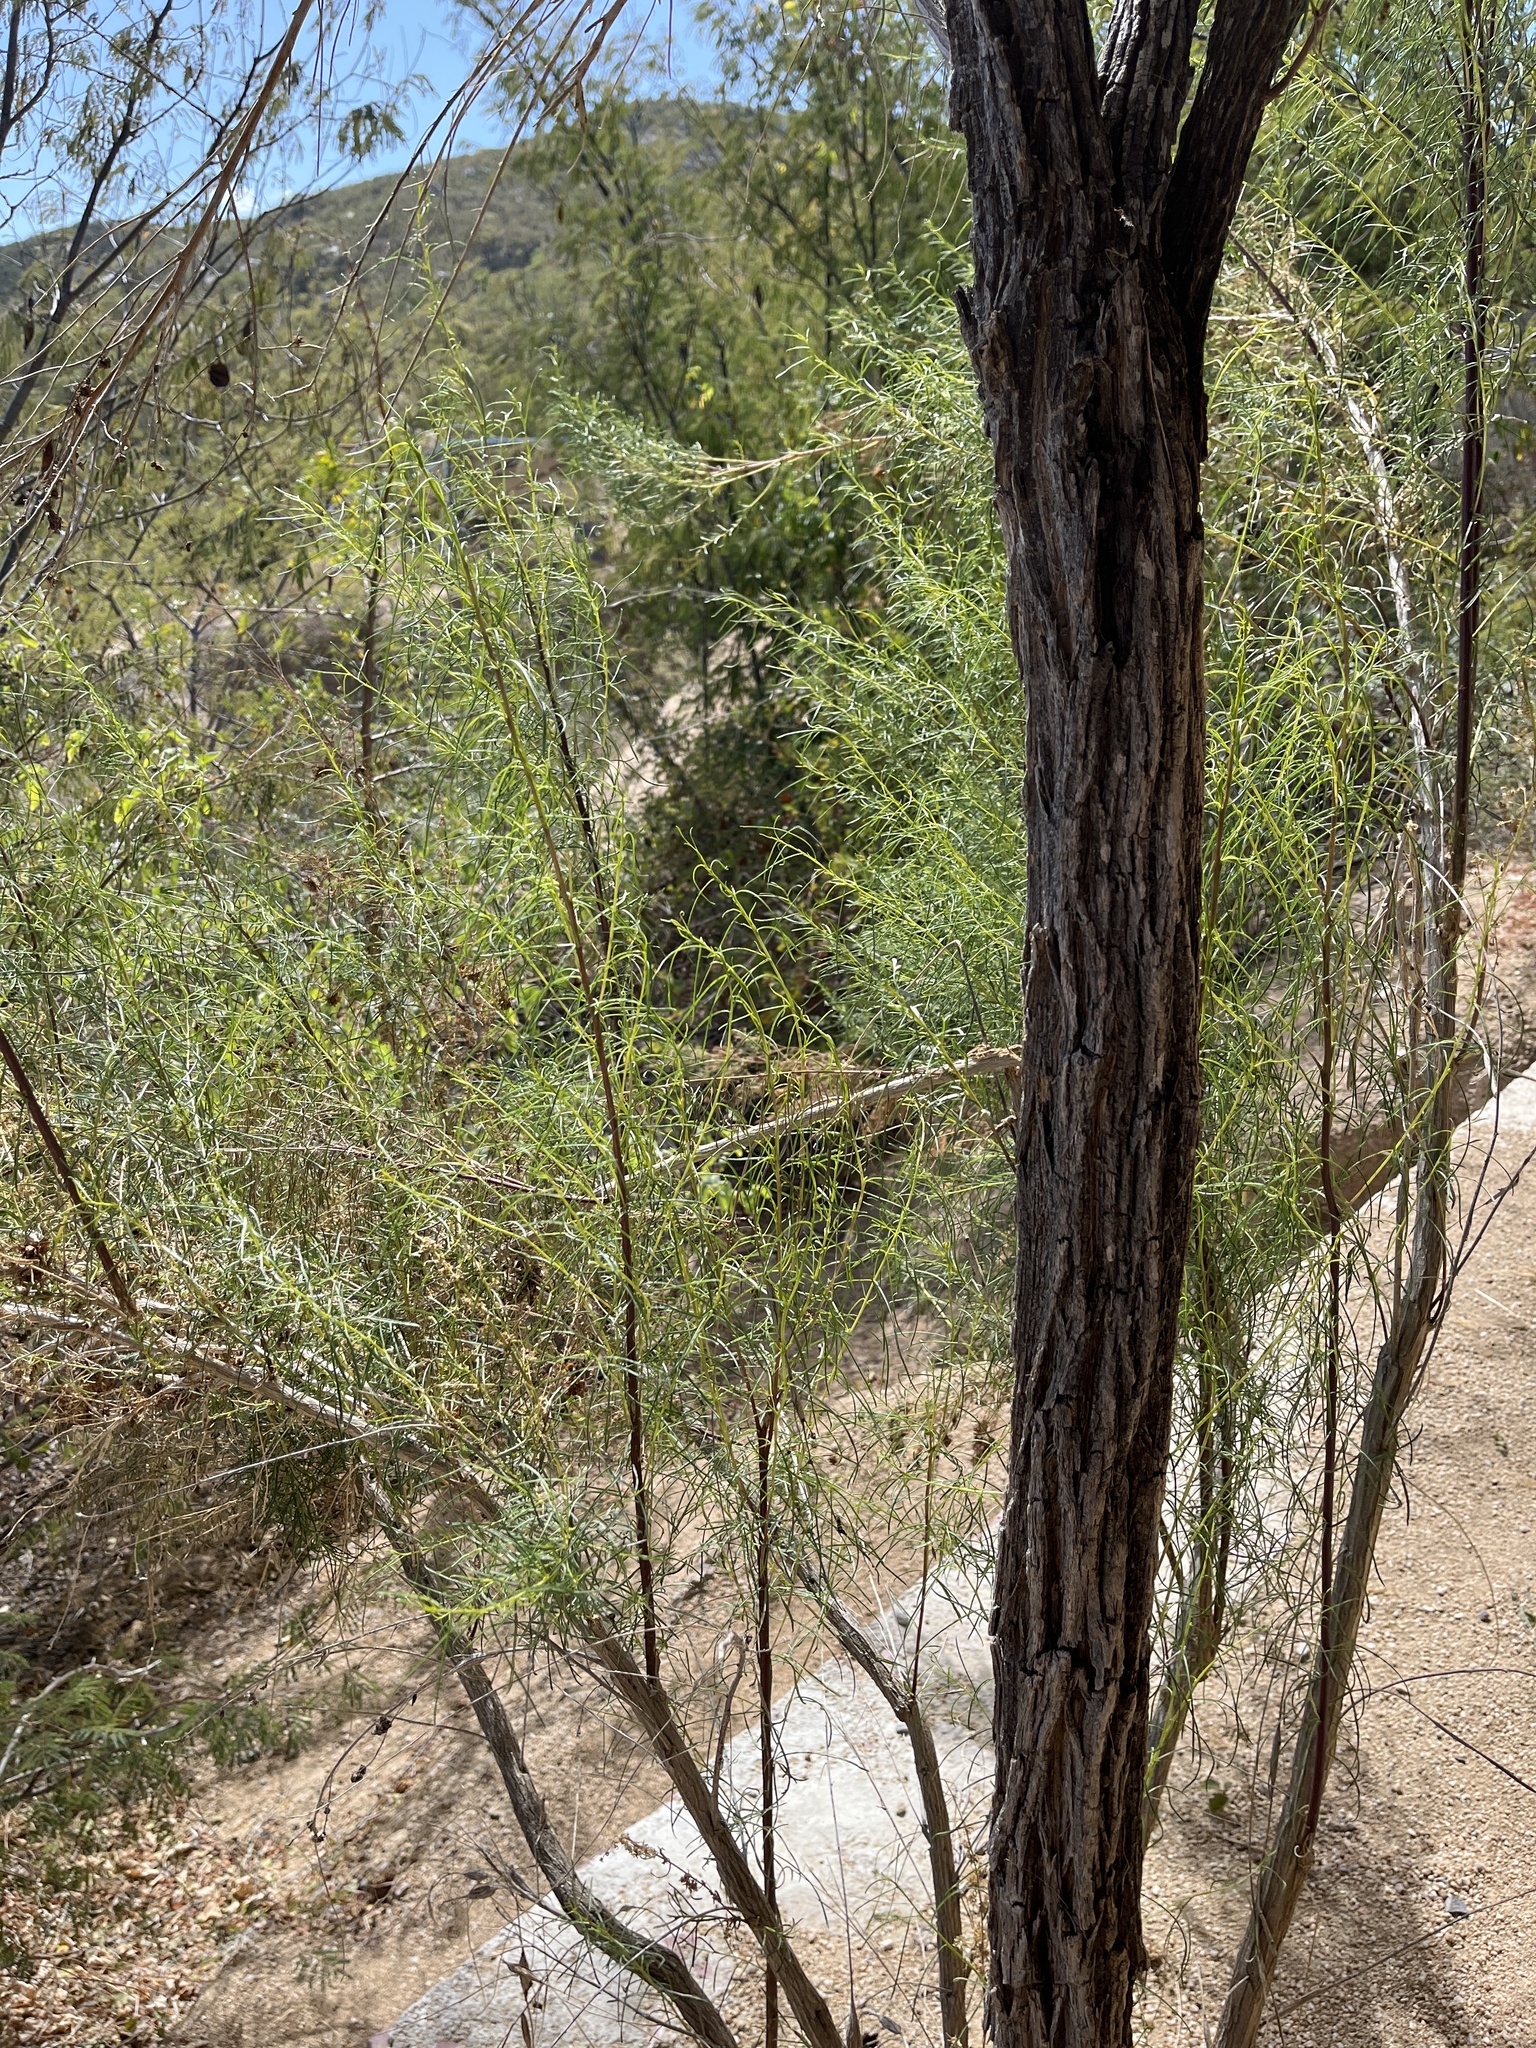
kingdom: Plantae
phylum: Tracheophyta
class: Magnoliopsida
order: Asterales
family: Asteraceae
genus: Ambrosia
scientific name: Ambrosia monogyra
